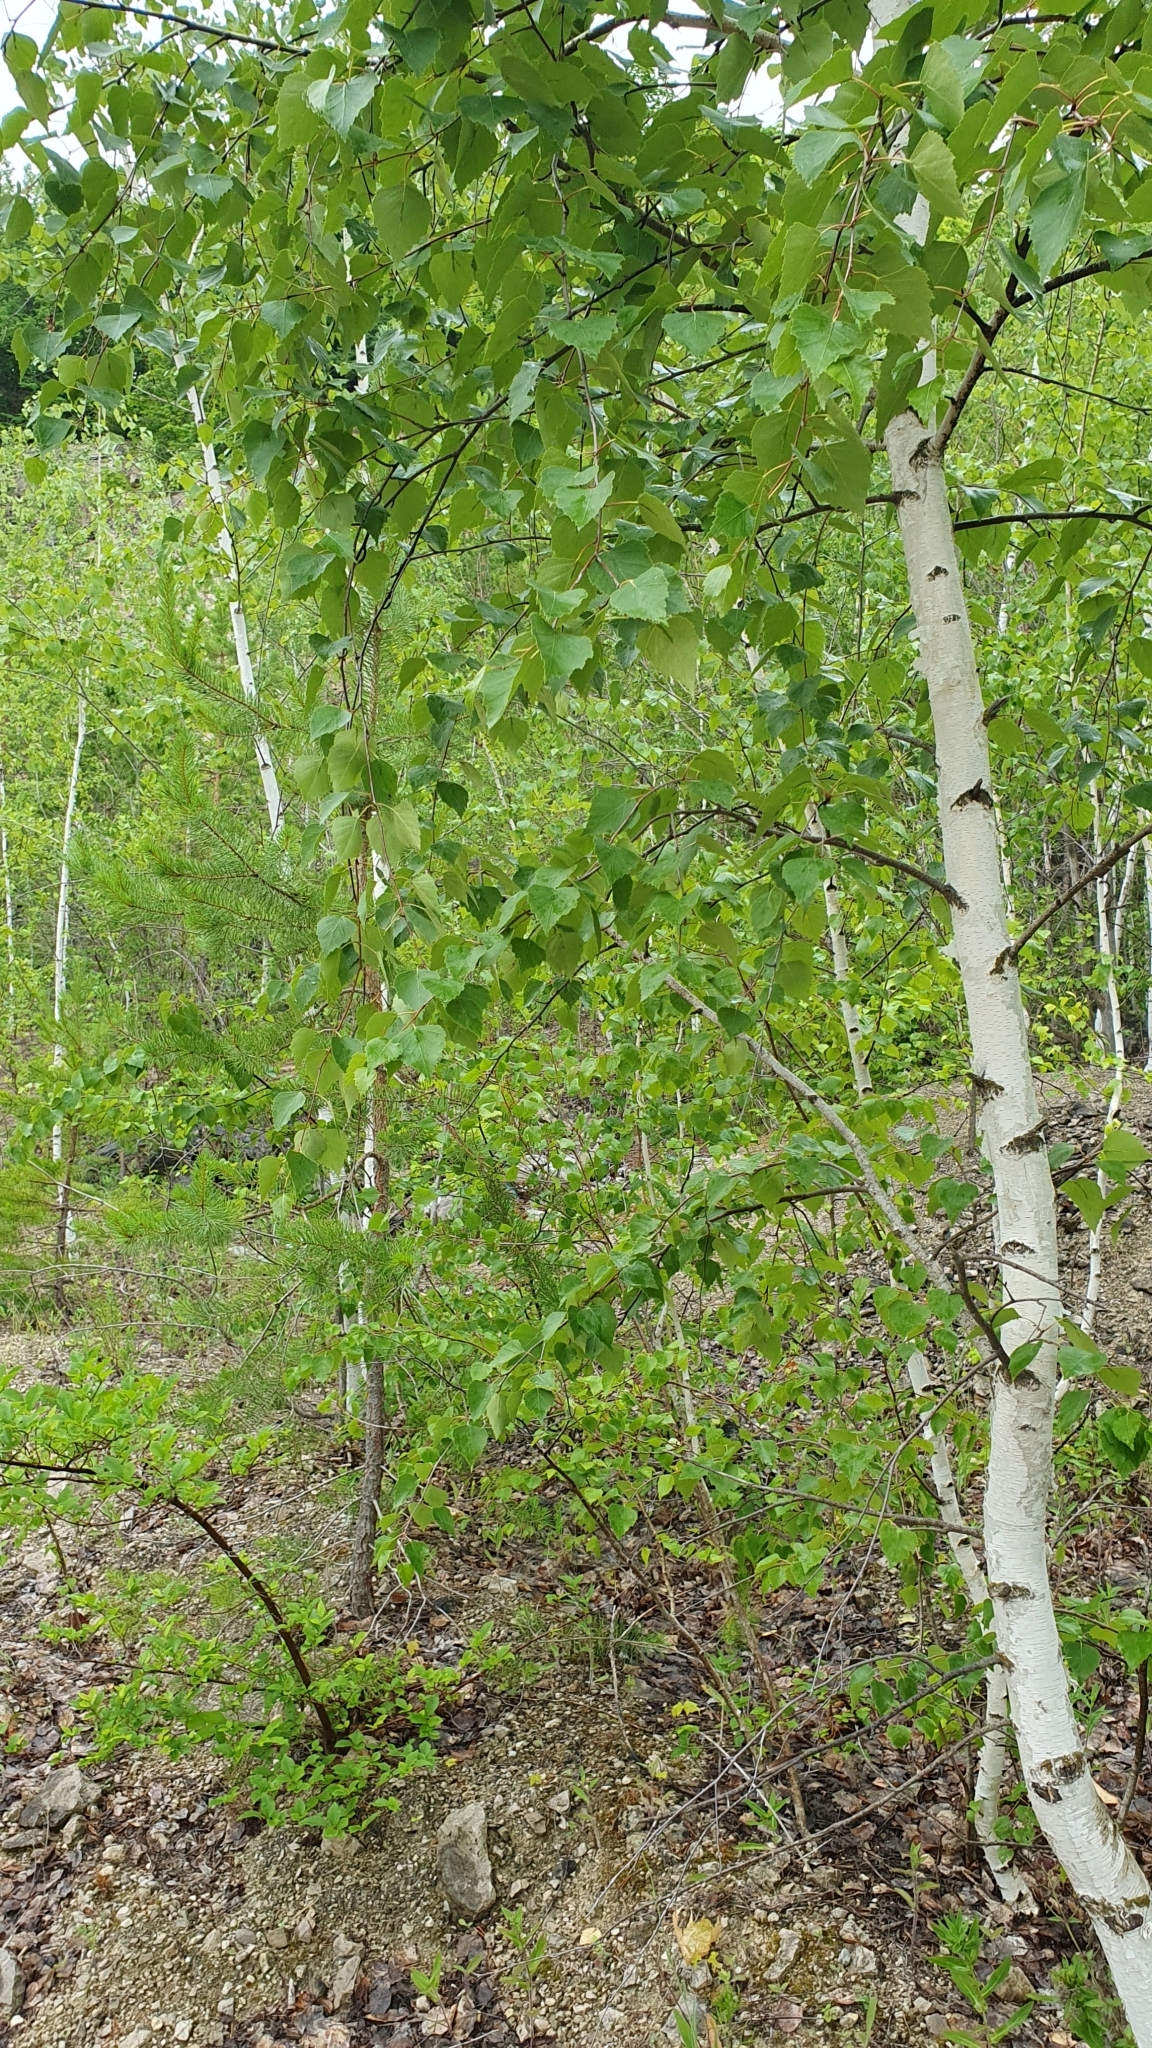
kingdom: Plantae
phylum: Tracheophyta
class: Magnoliopsida
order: Fagales
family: Betulaceae
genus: Betula
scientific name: Betula pendula
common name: Silver birch
